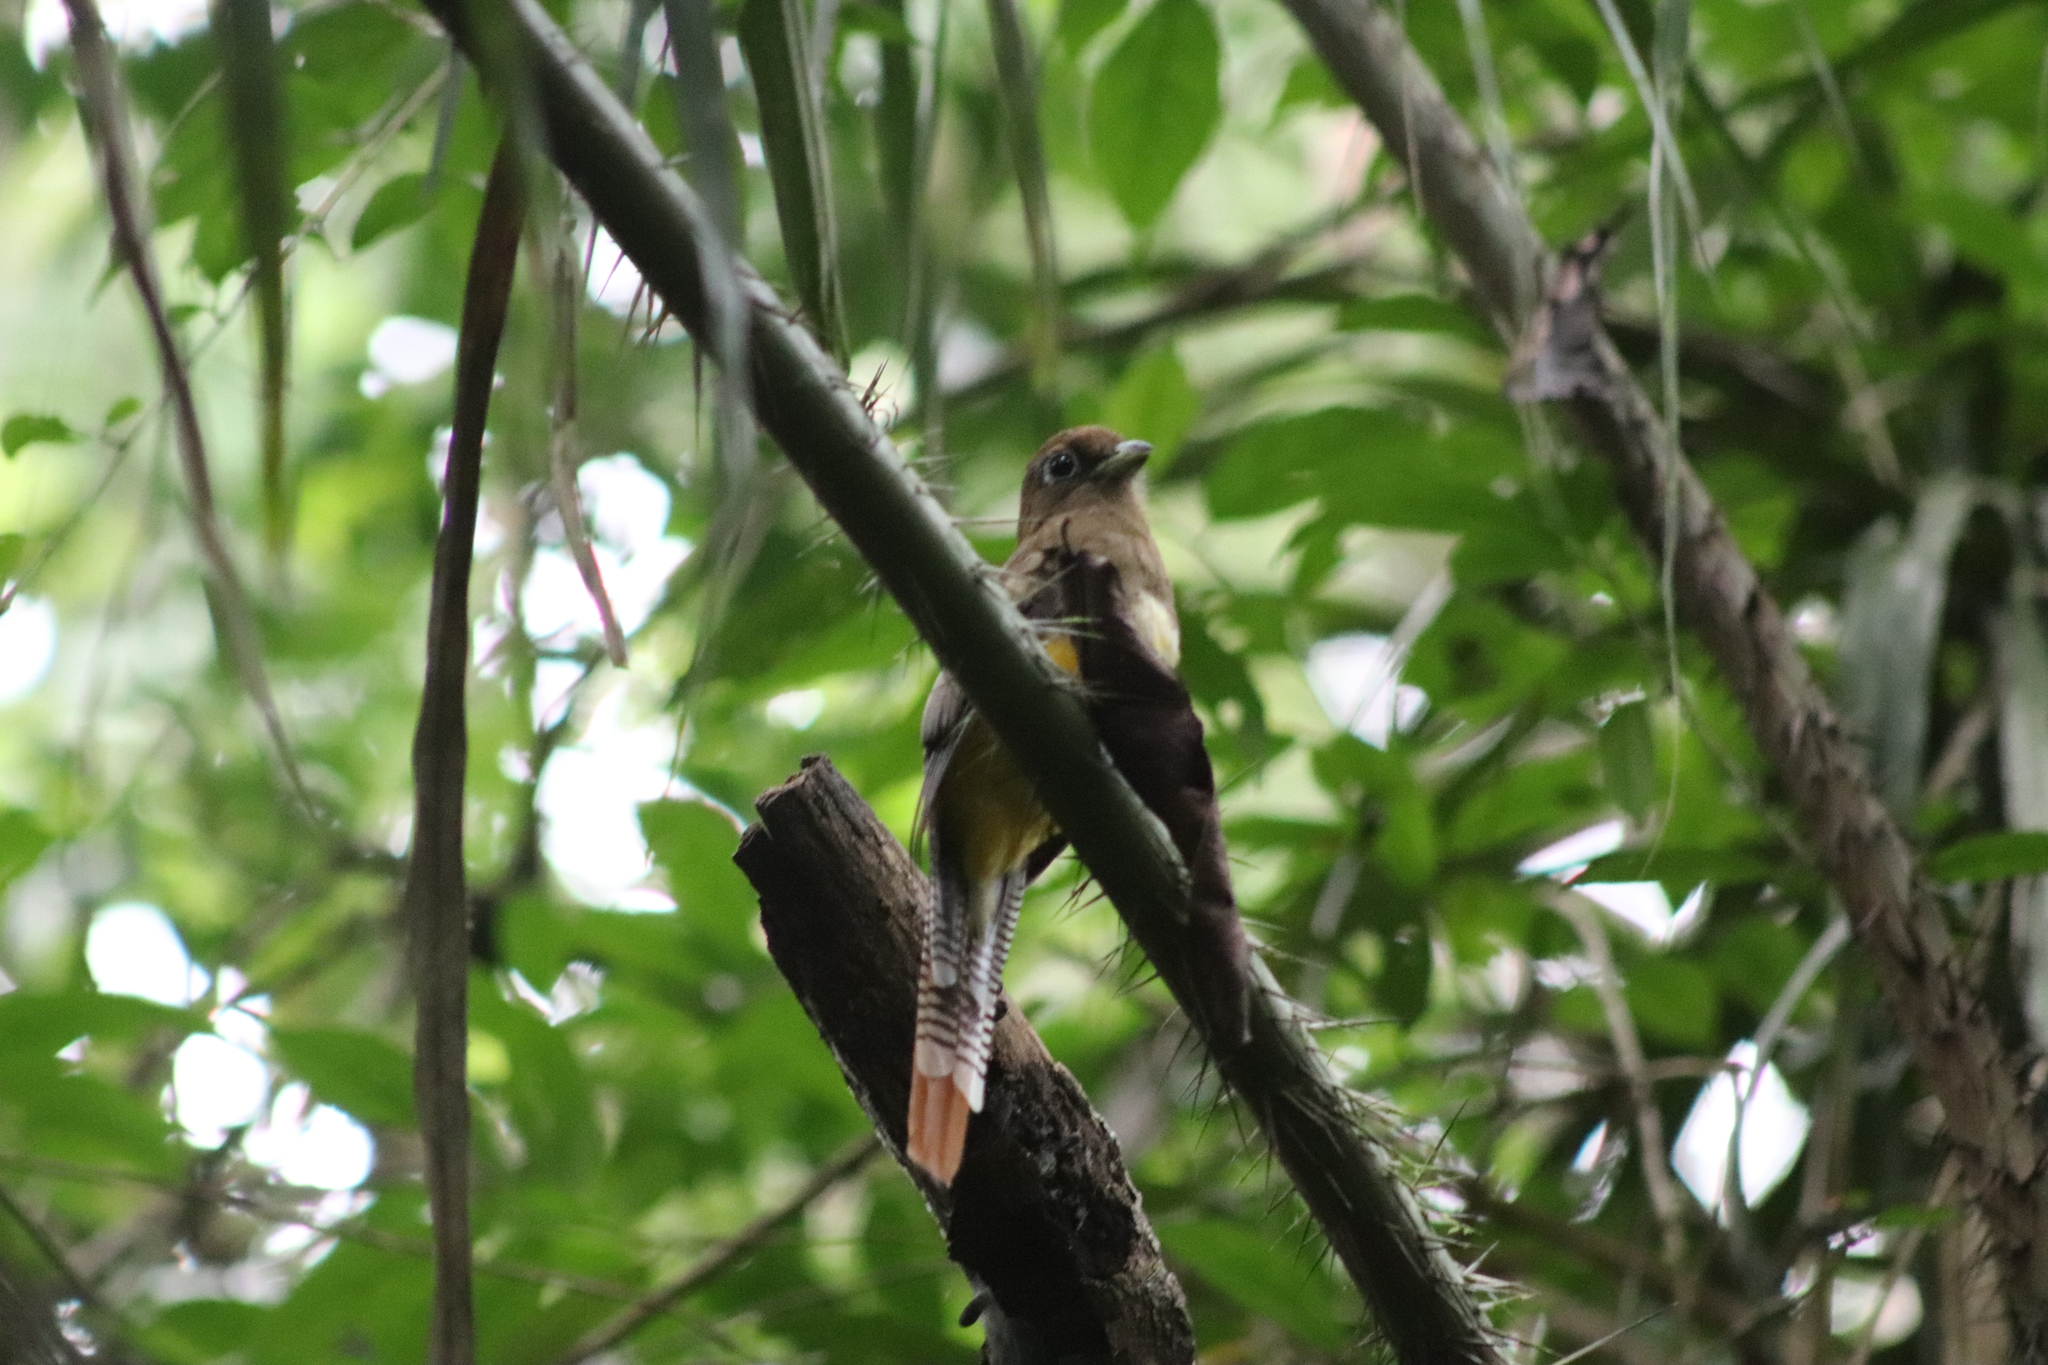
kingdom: Animalia
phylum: Chordata
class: Aves
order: Trogoniformes
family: Trogonidae
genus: Trogon
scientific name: Trogon rufus
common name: Black-throated trogon
